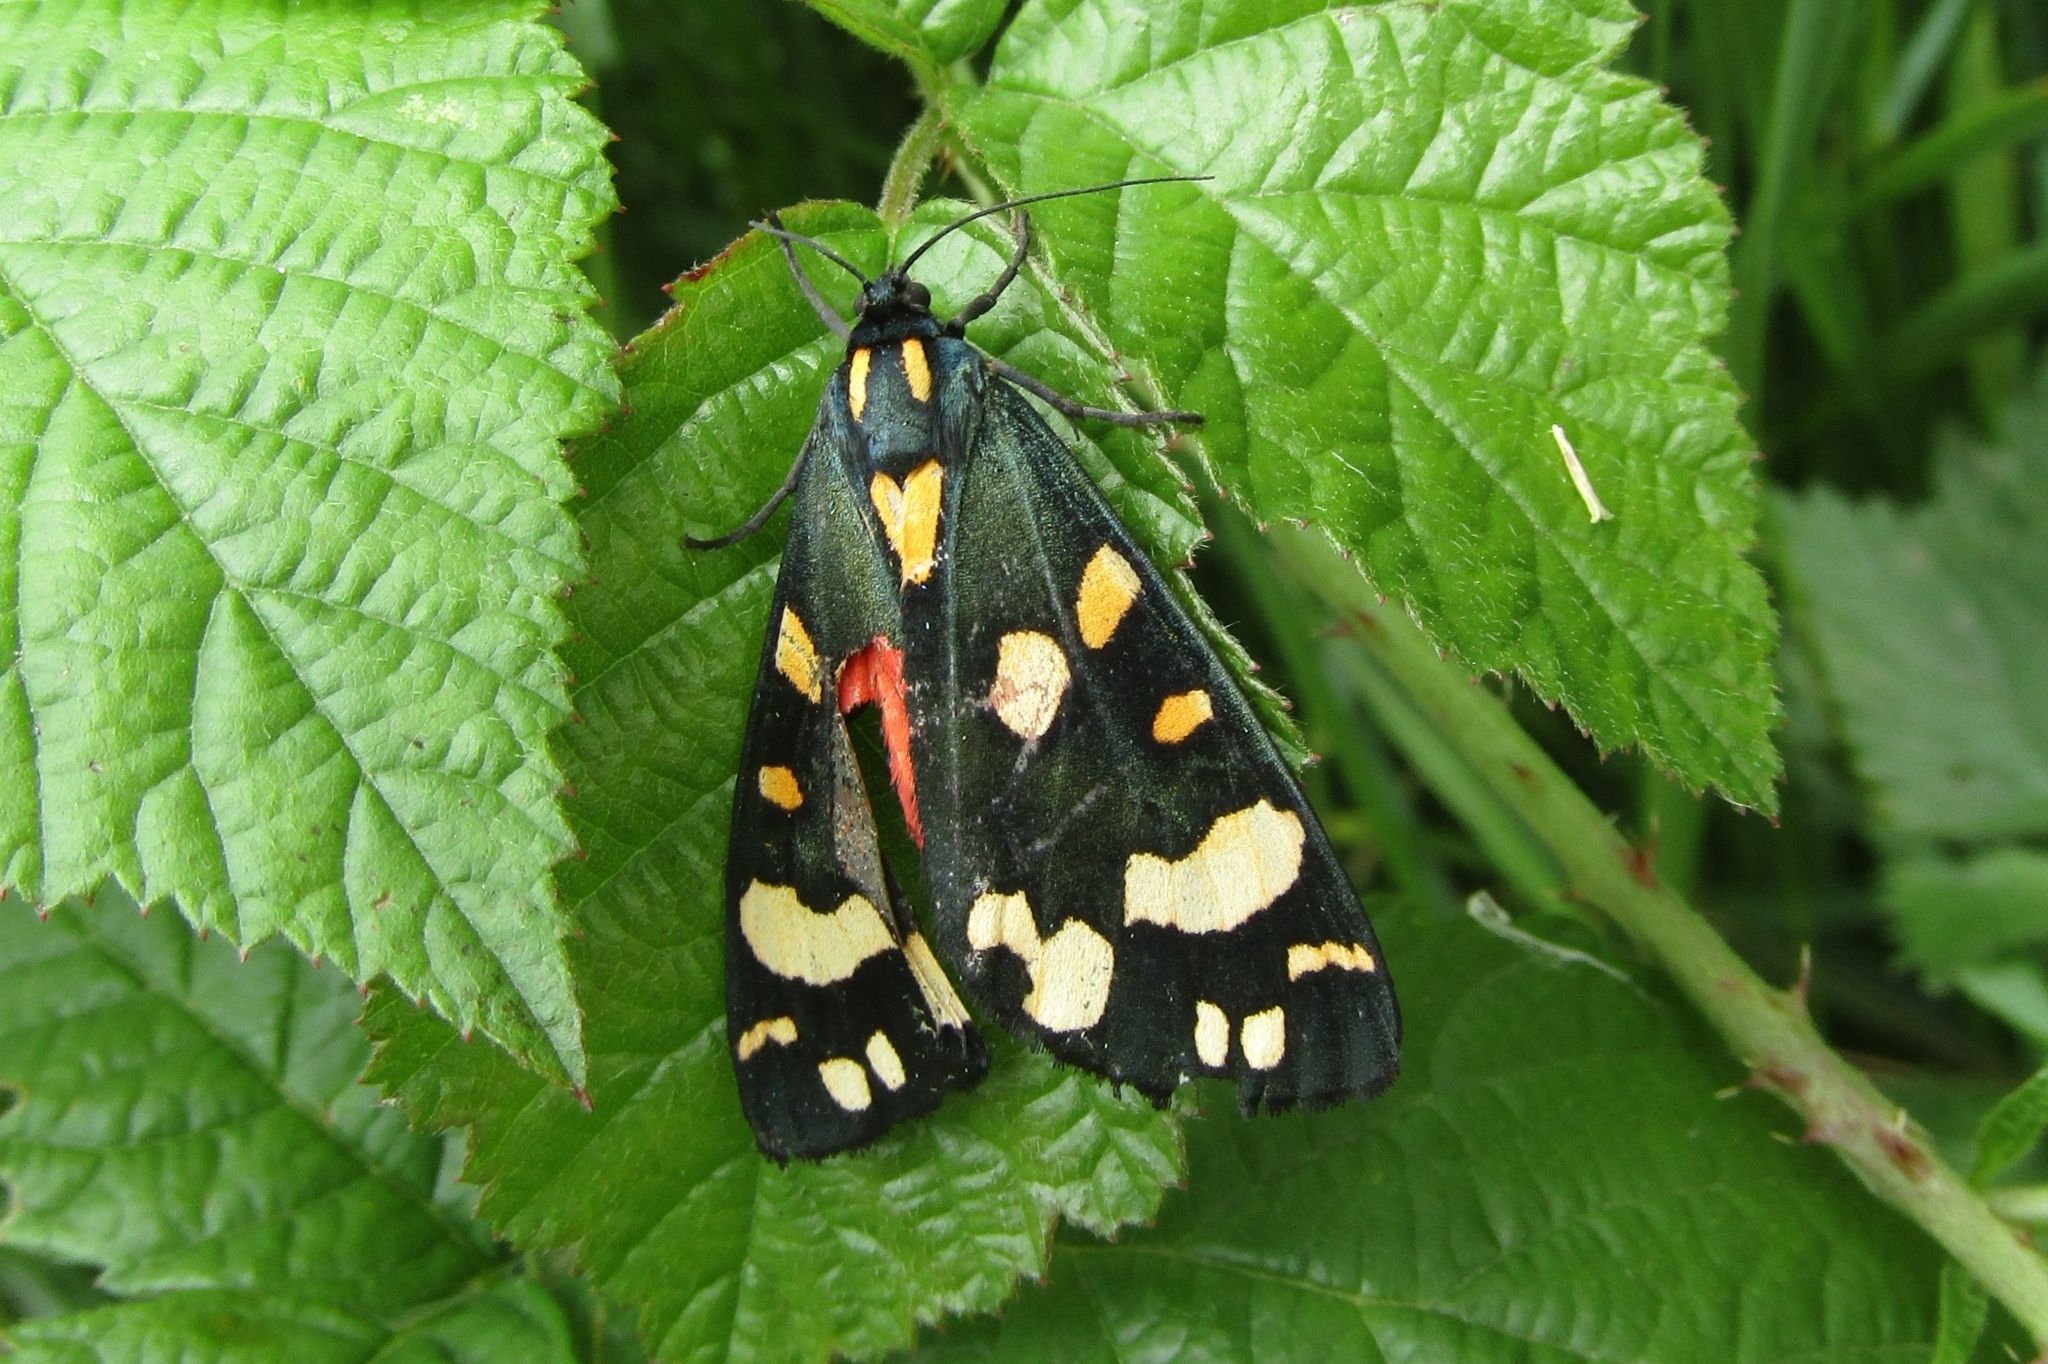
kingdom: Animalia
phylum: Arthropoda
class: Insecta
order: Lepidoptera
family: Erebidae
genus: Callimorpha
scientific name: Callimorpha dominula
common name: Scarlet tiger
